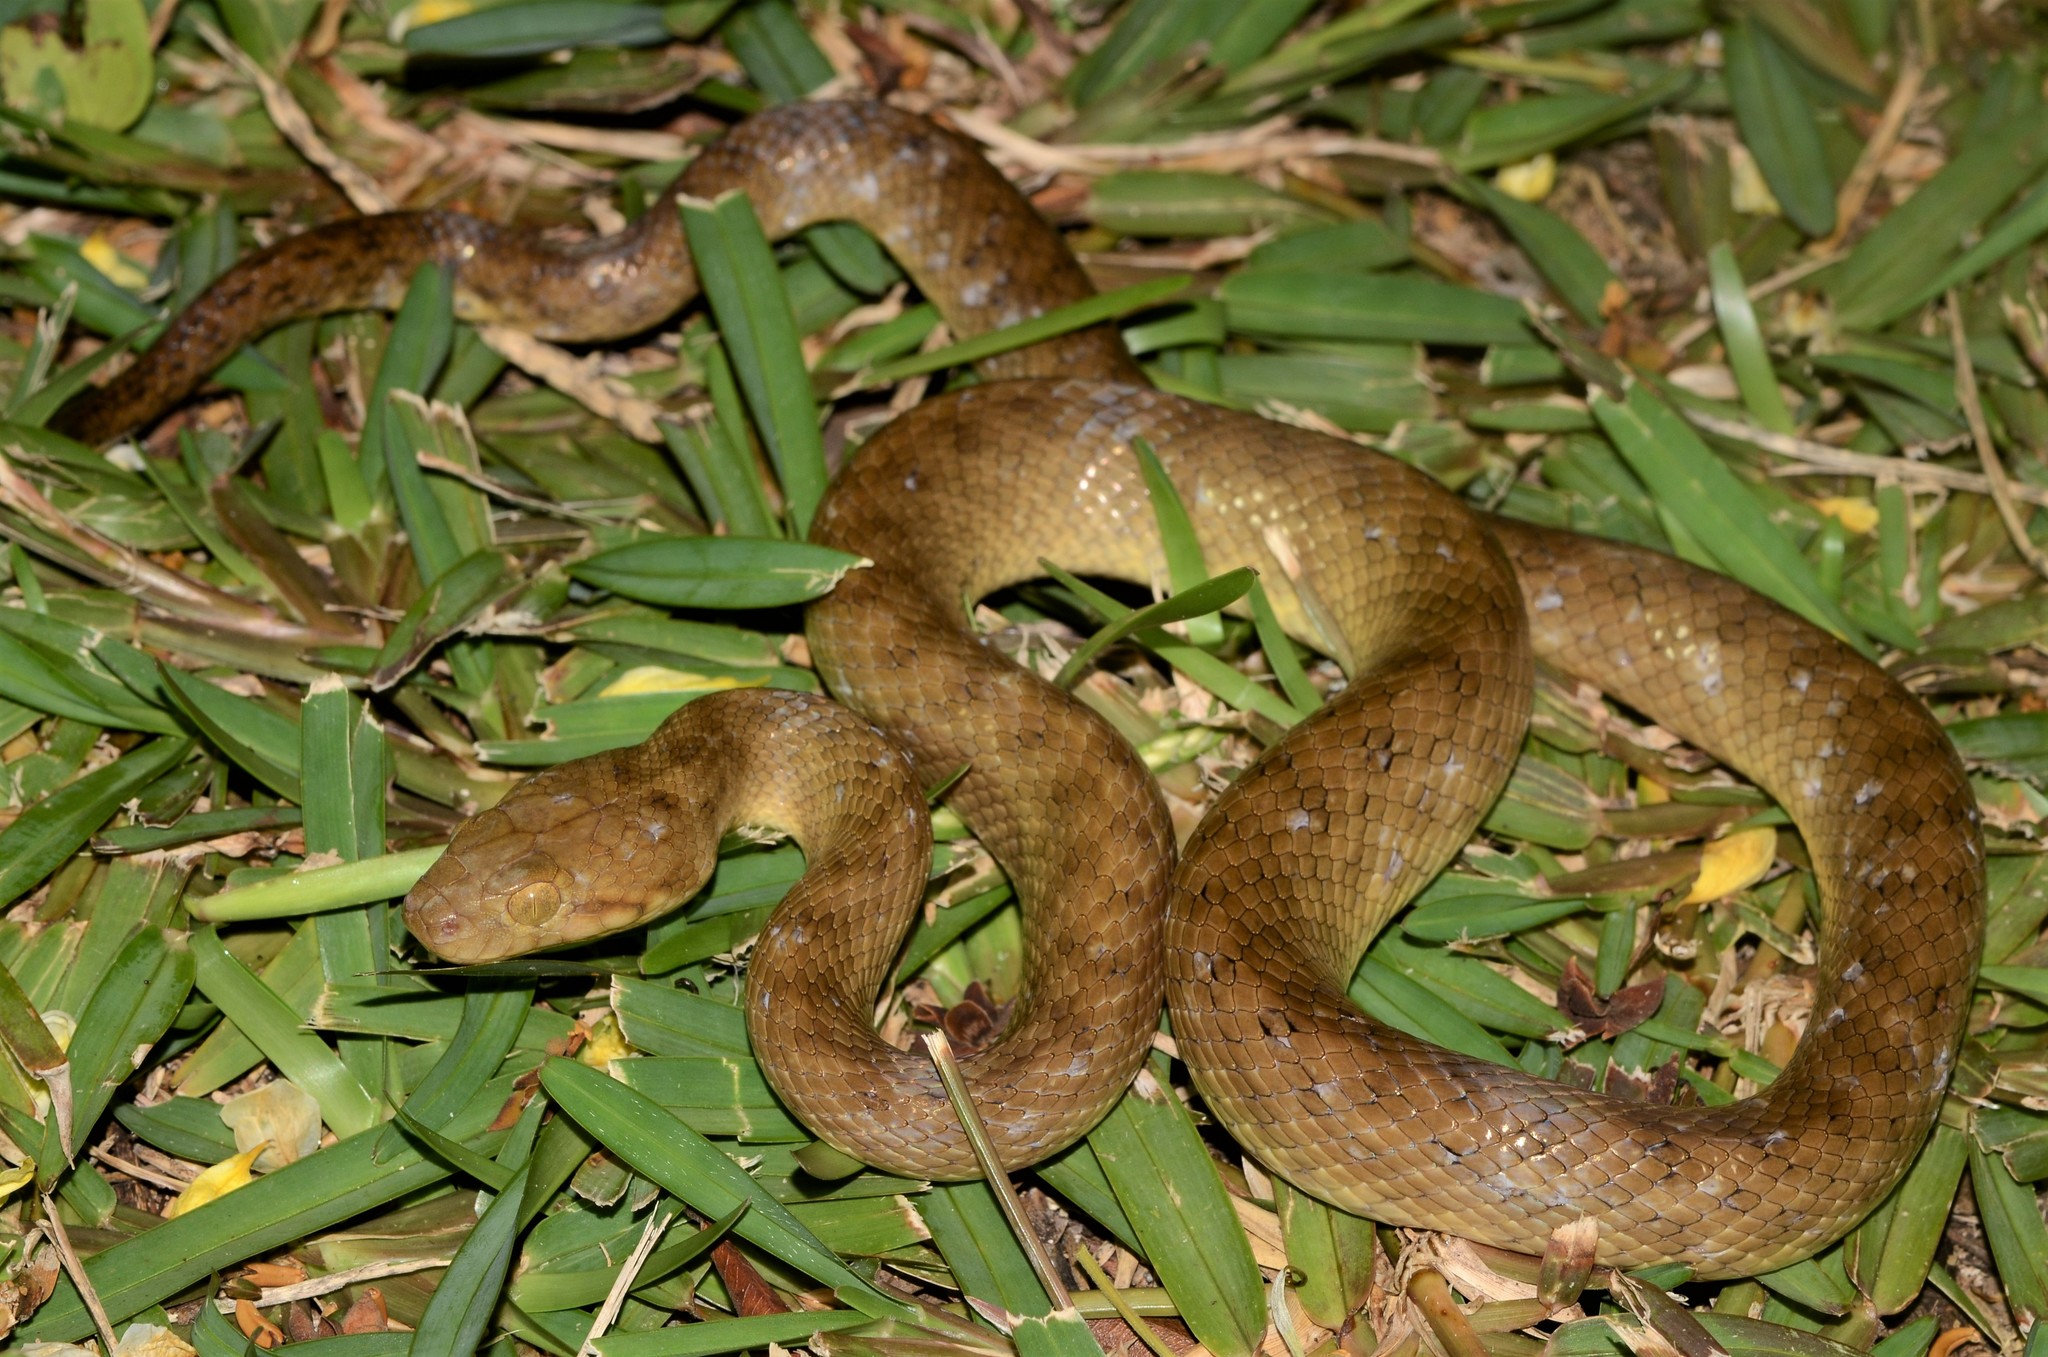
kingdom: Animalia
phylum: Chordata
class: Squamata
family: Pseudoxyrhophiidae
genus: Madagascarophis
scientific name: Madagascarophis colubrinus
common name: Madagascar night snake
